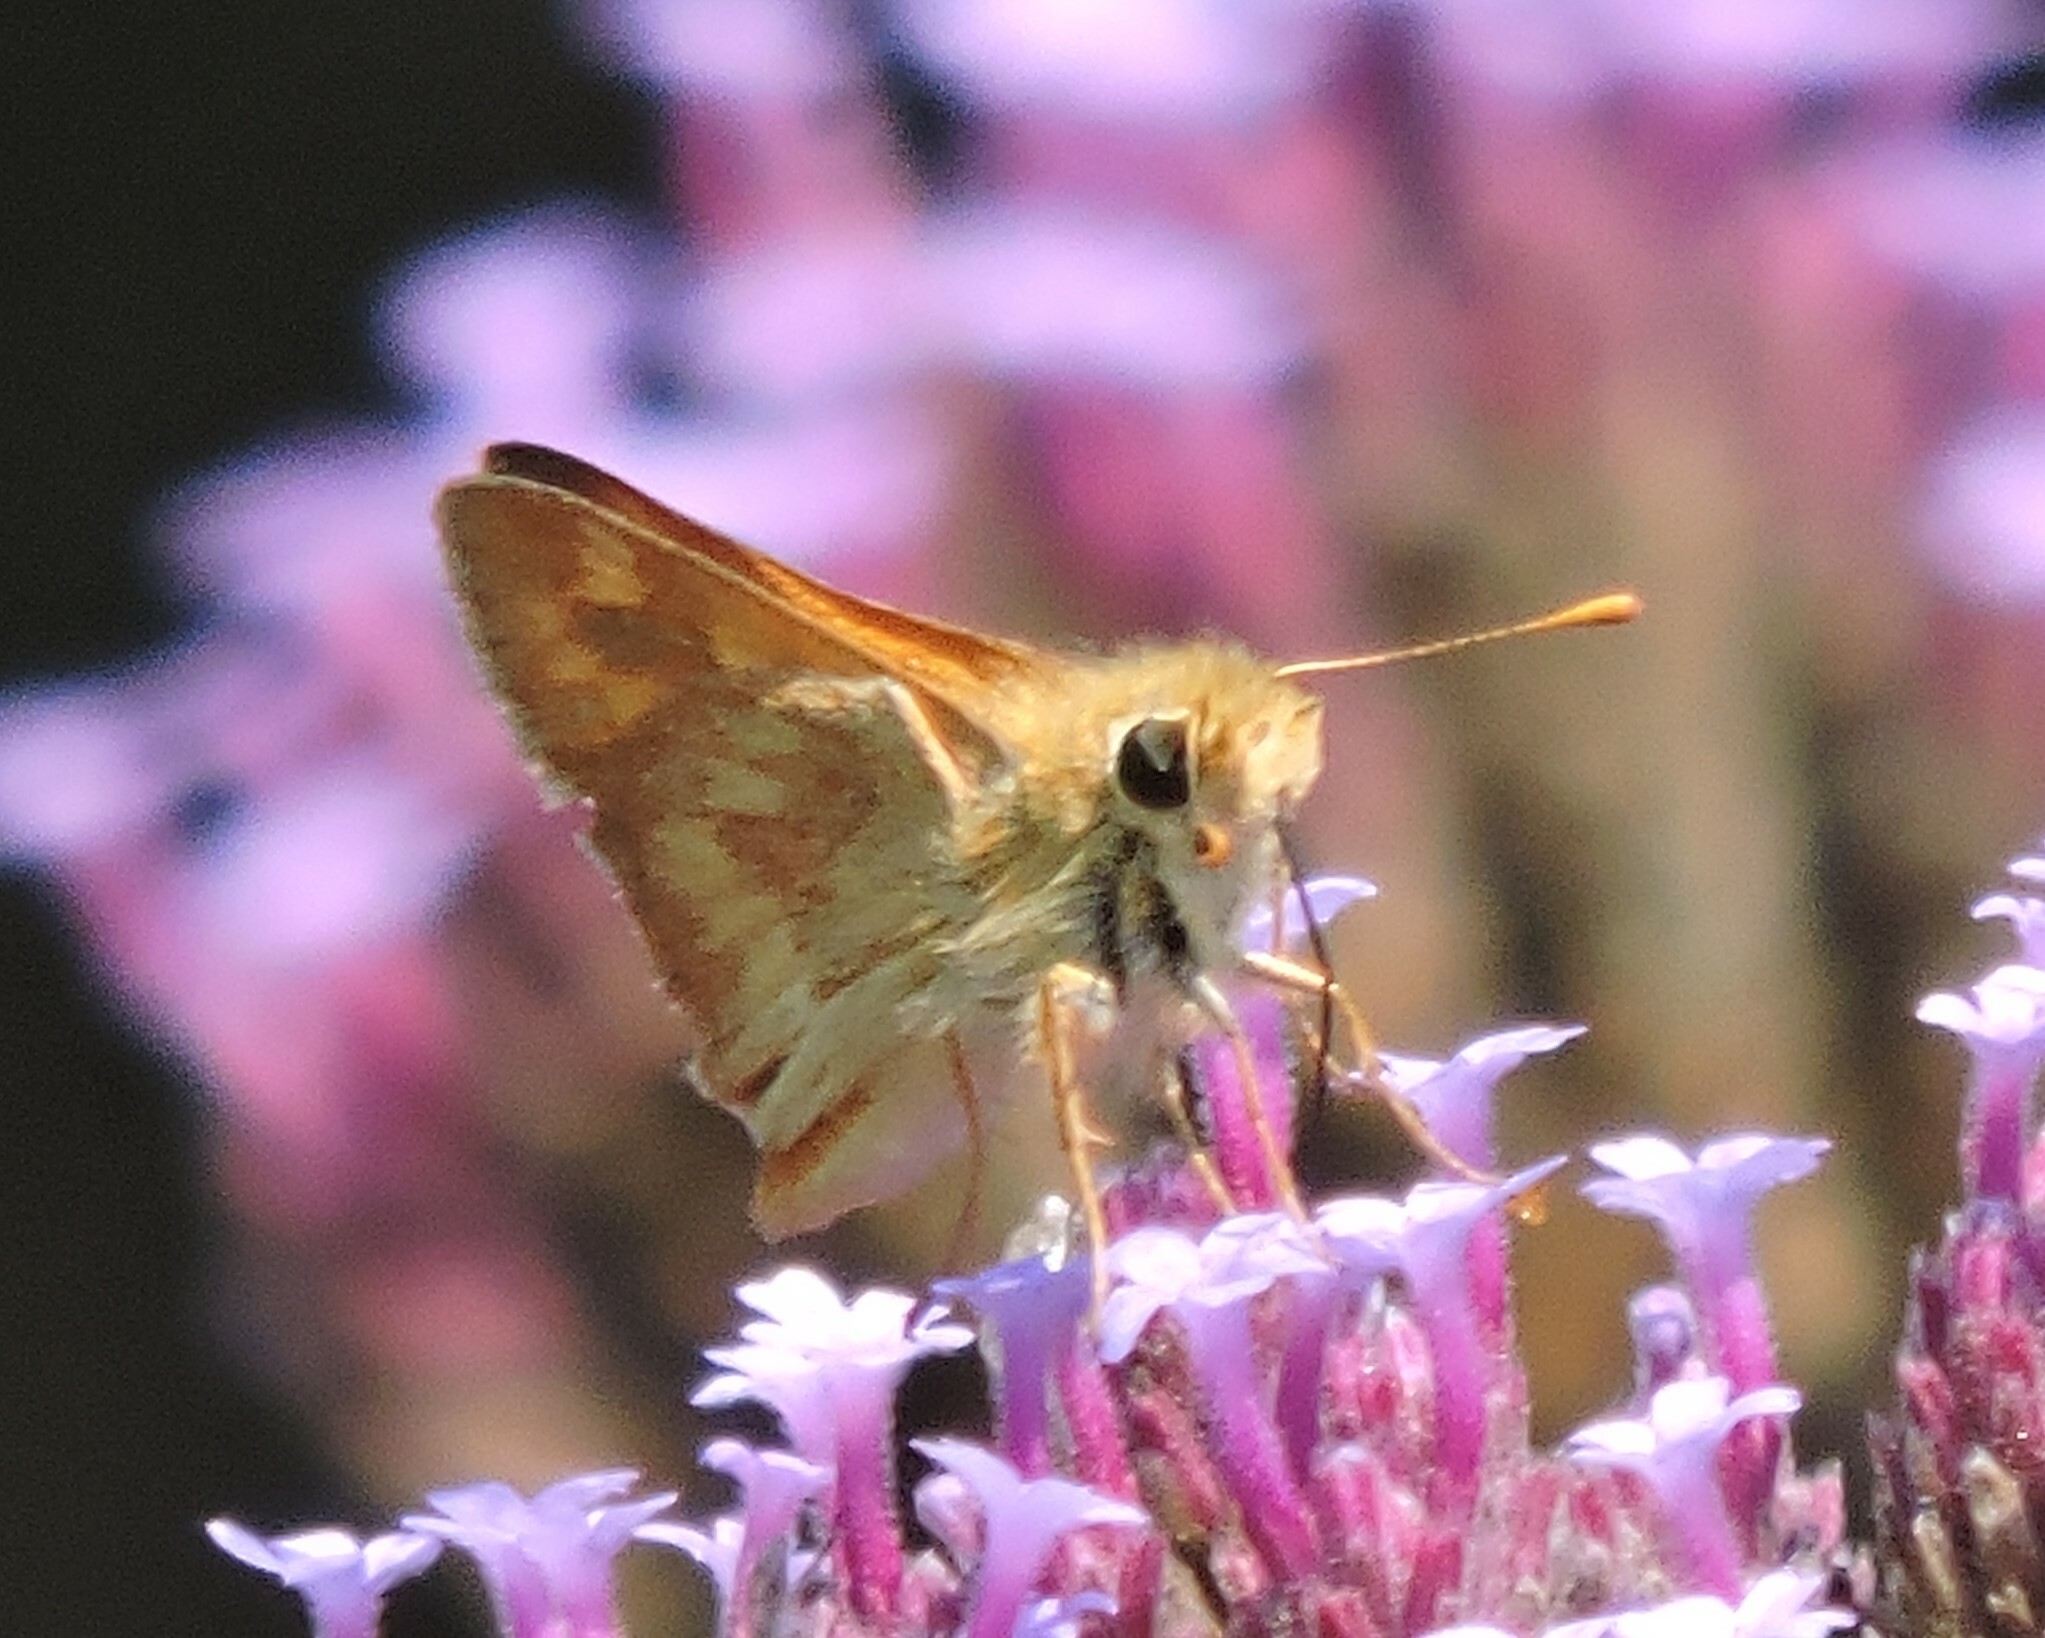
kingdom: Animalia
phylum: Arthropoda
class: Insecta
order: Lepidoptera
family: Hesperiidae
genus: Ochlodes
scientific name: Ochlodes sylvanoides
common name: Woodland skipper
